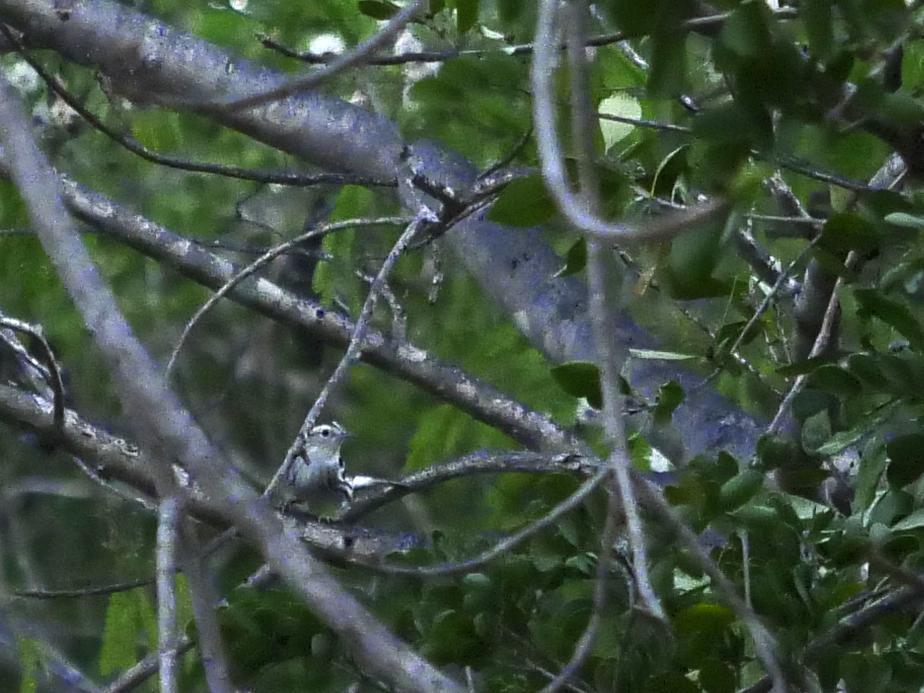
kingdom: Animalia
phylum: Chordata
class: Aves
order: Passeriformes
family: Parulidae
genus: Mniotilta
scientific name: Mniotilta varia
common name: Black-and-white warbler
